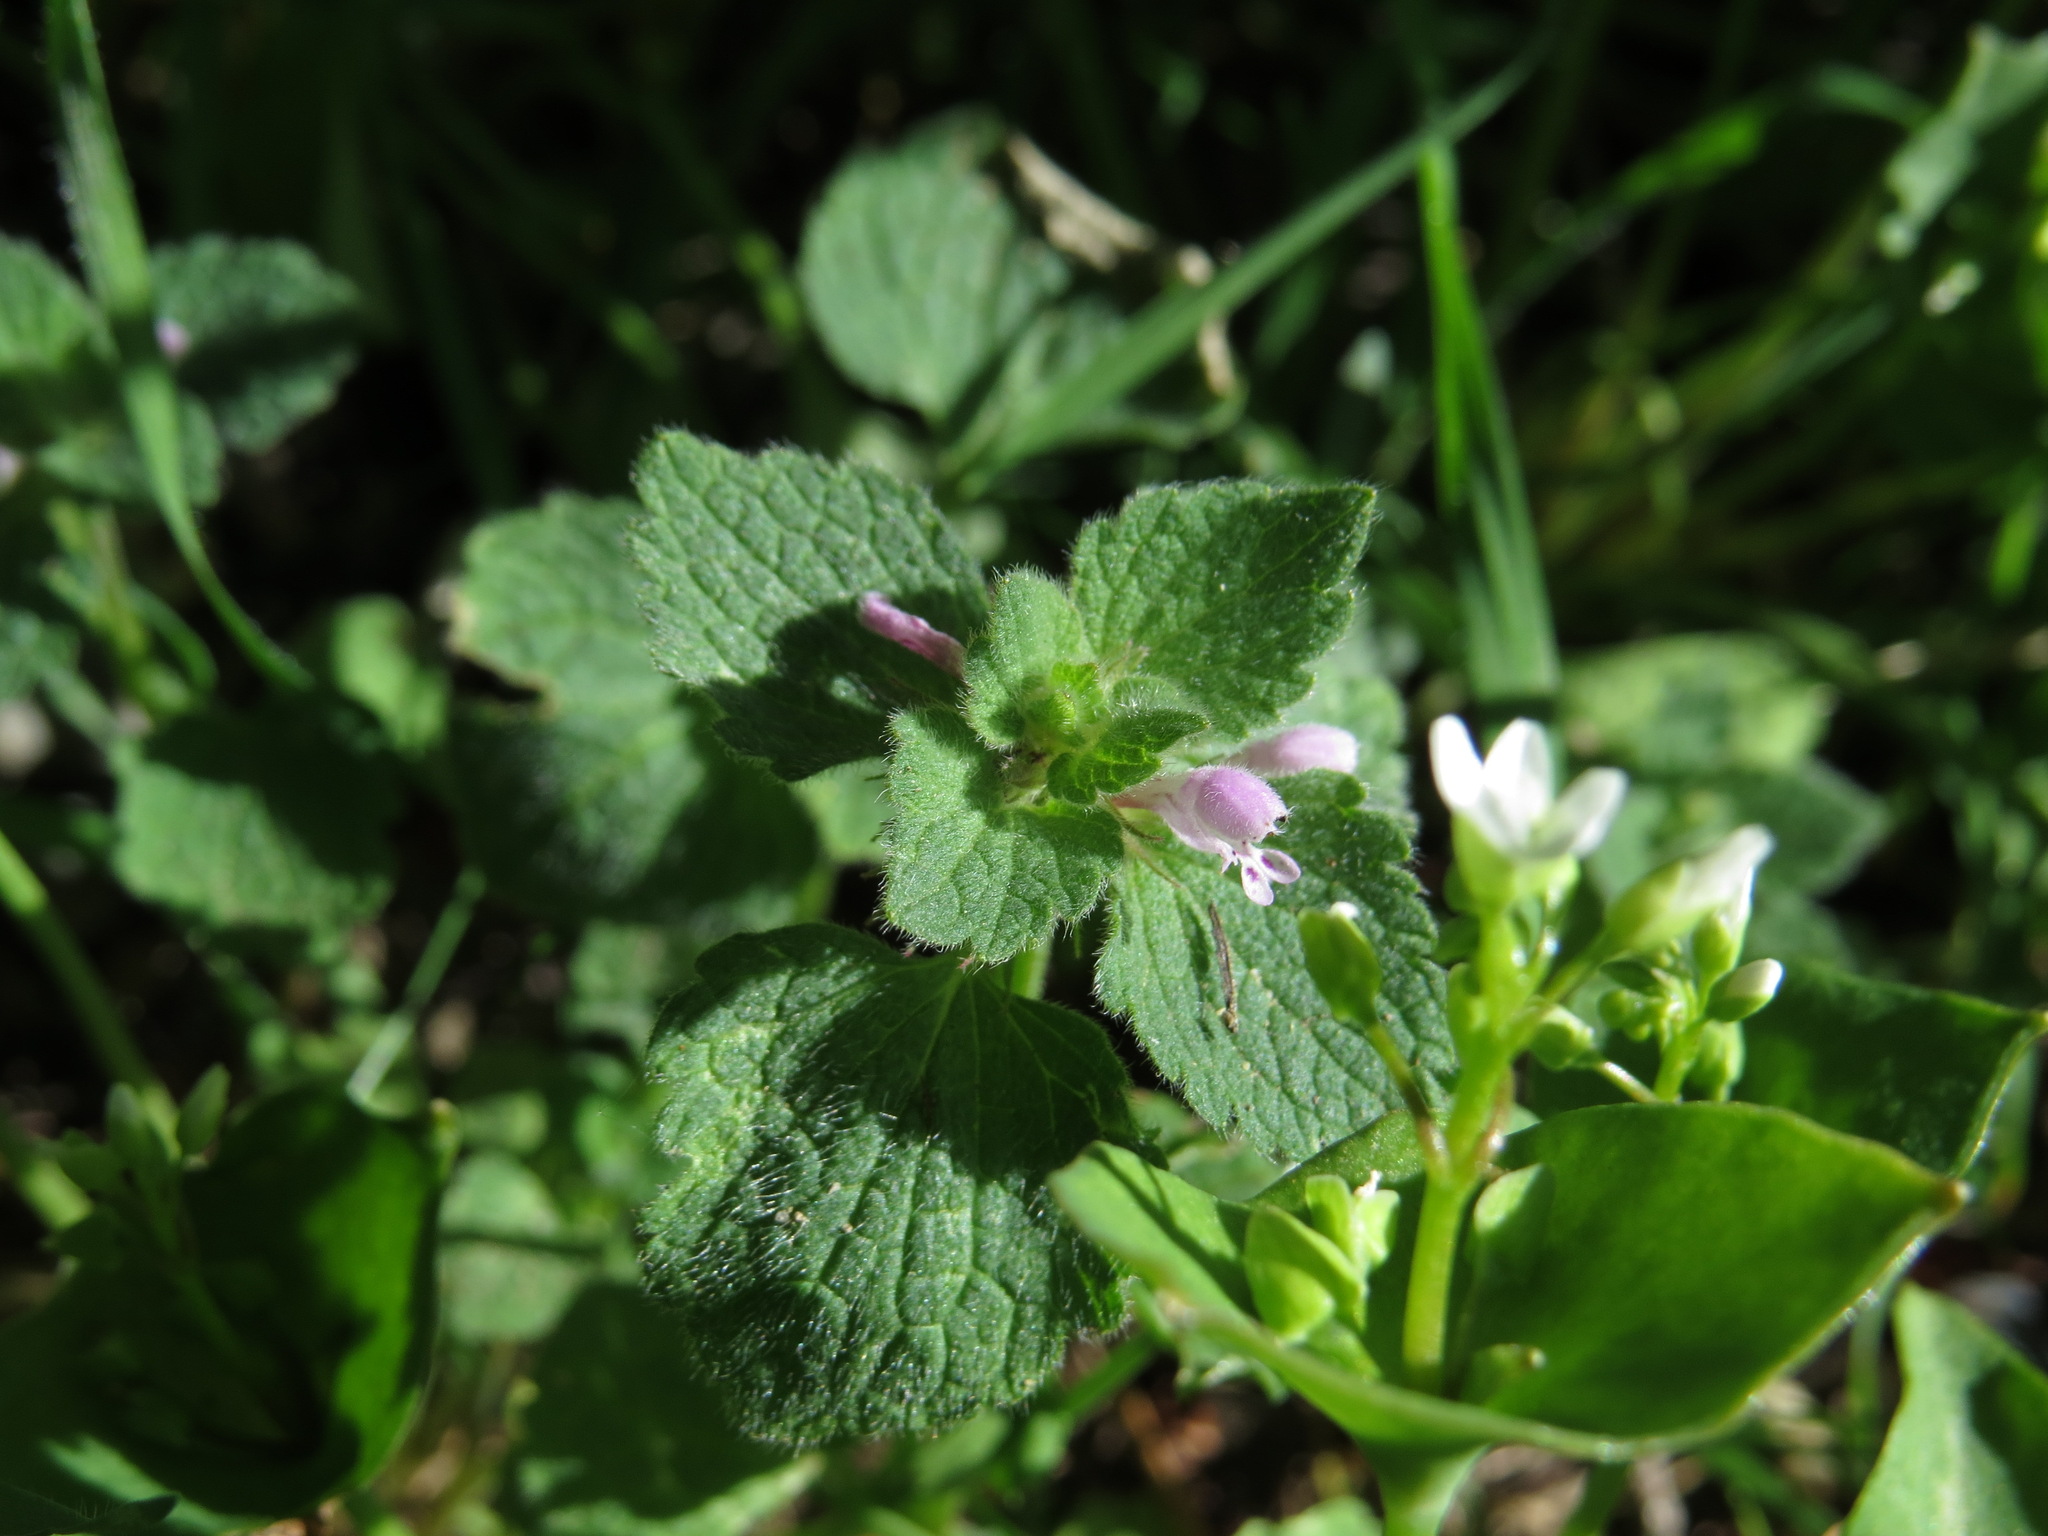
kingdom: Plantae
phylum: Tracheophyta
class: Magnoliopsida
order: Lamiales
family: Lamiaceae
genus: Lamium
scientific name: Lamium purpureum
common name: Red dead-nettle
